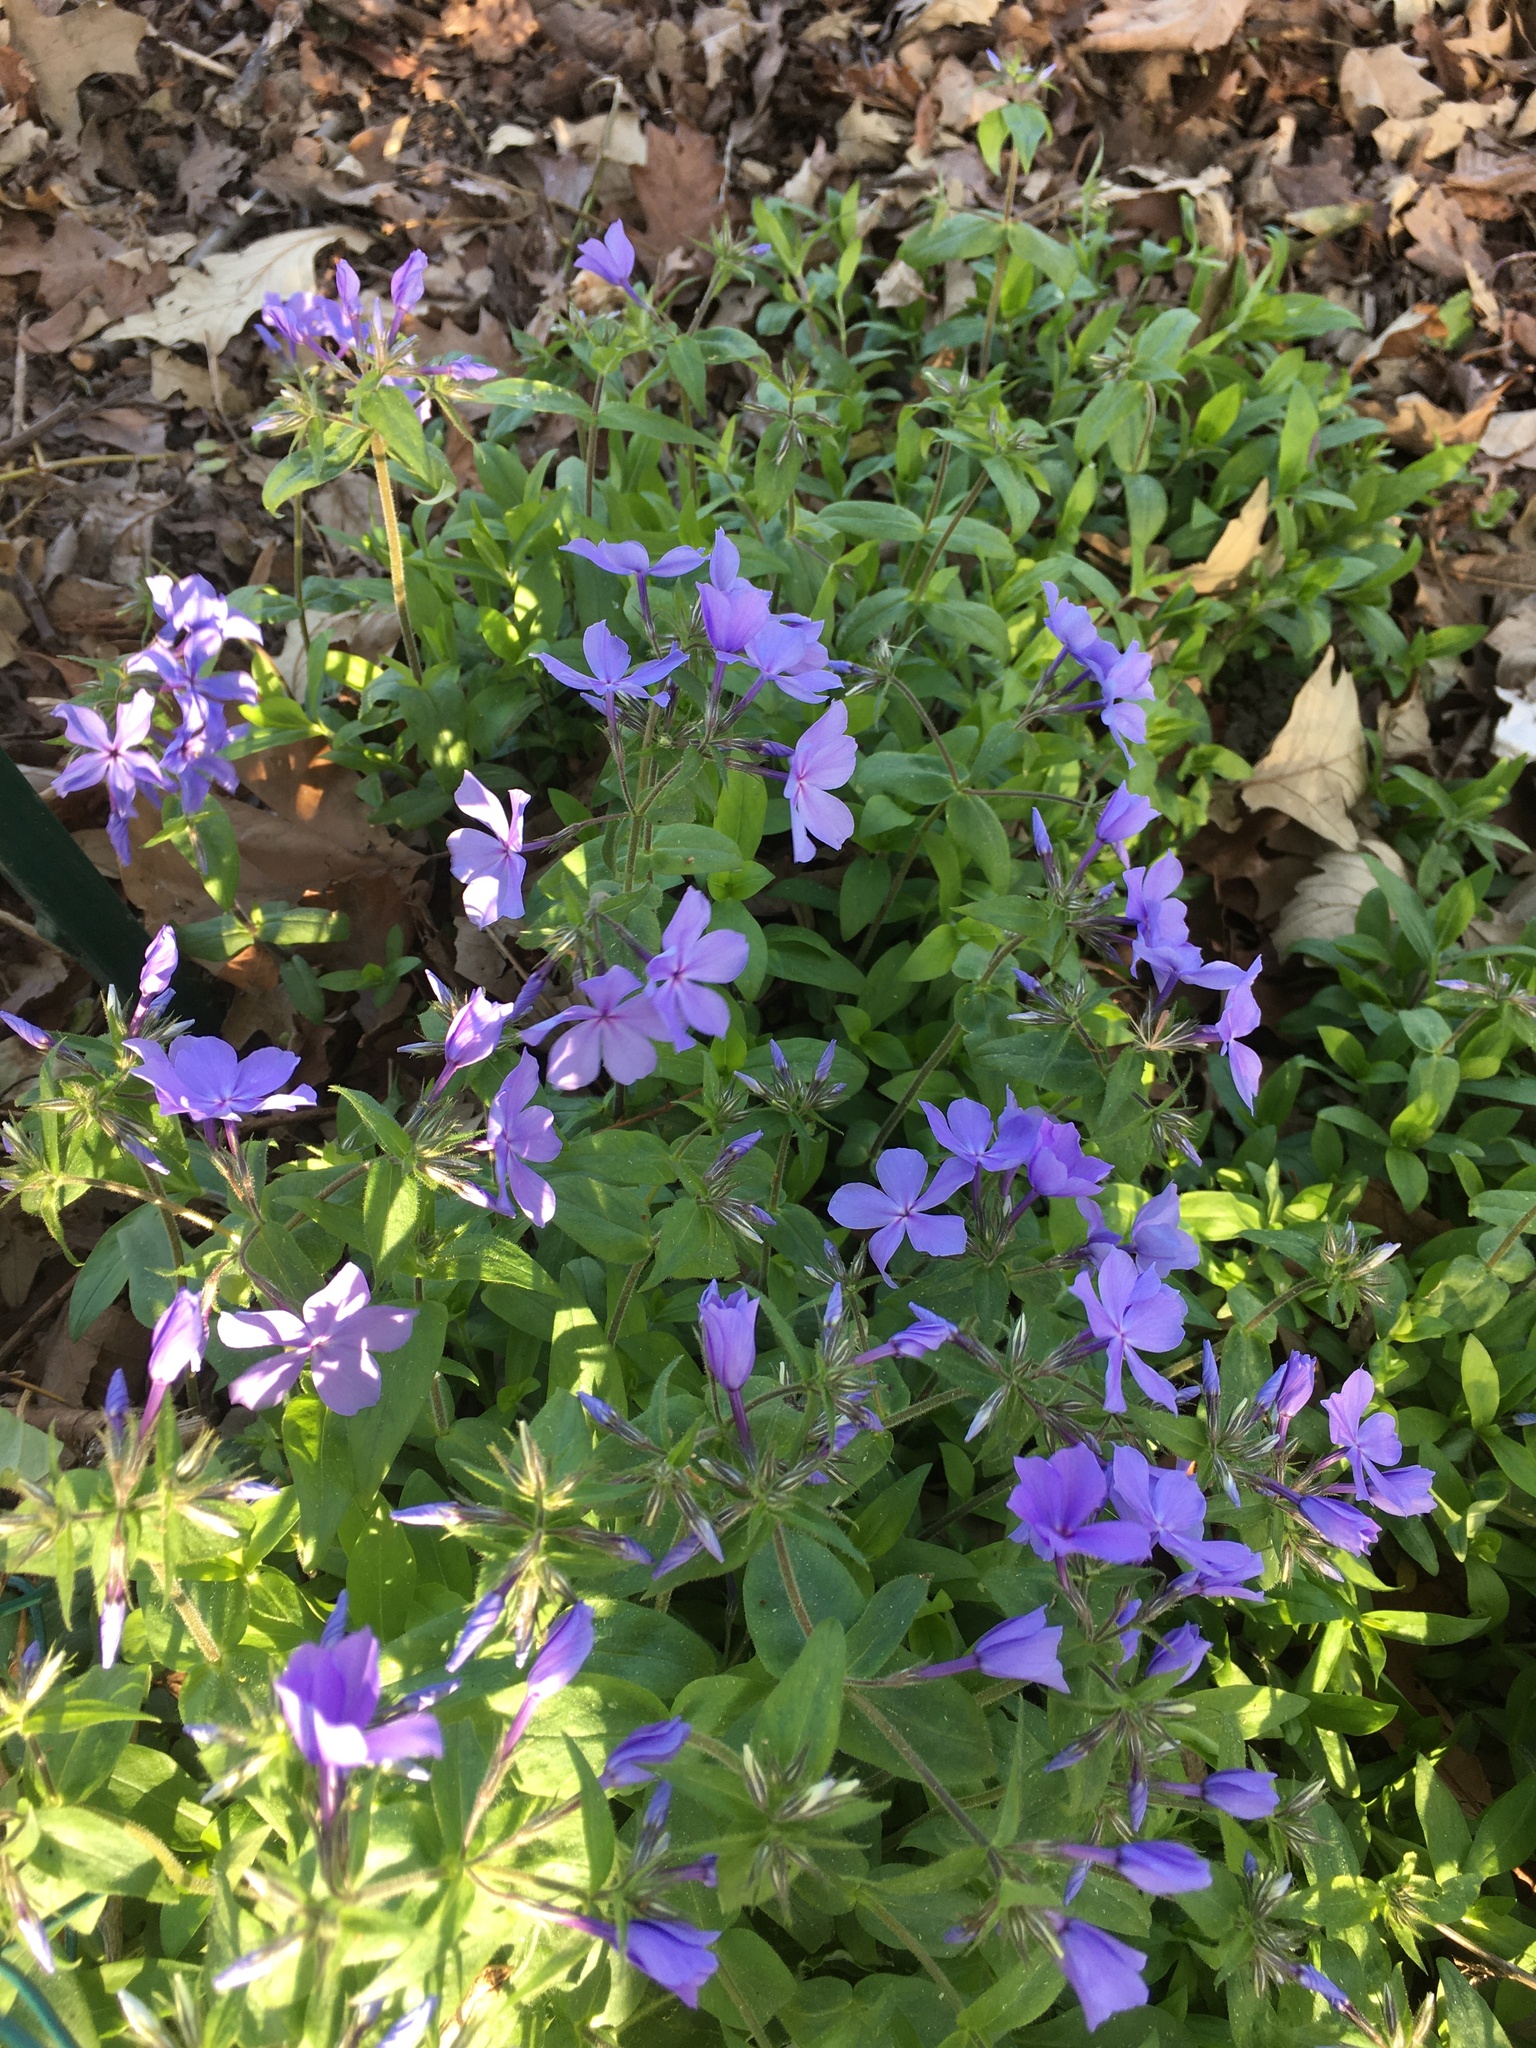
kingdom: Plantae
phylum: Tracheophyta
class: Magnoliopsida
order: Ericales
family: Polemoniaceae
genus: Phlox
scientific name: Phlox divaricata
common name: Blue phlox
